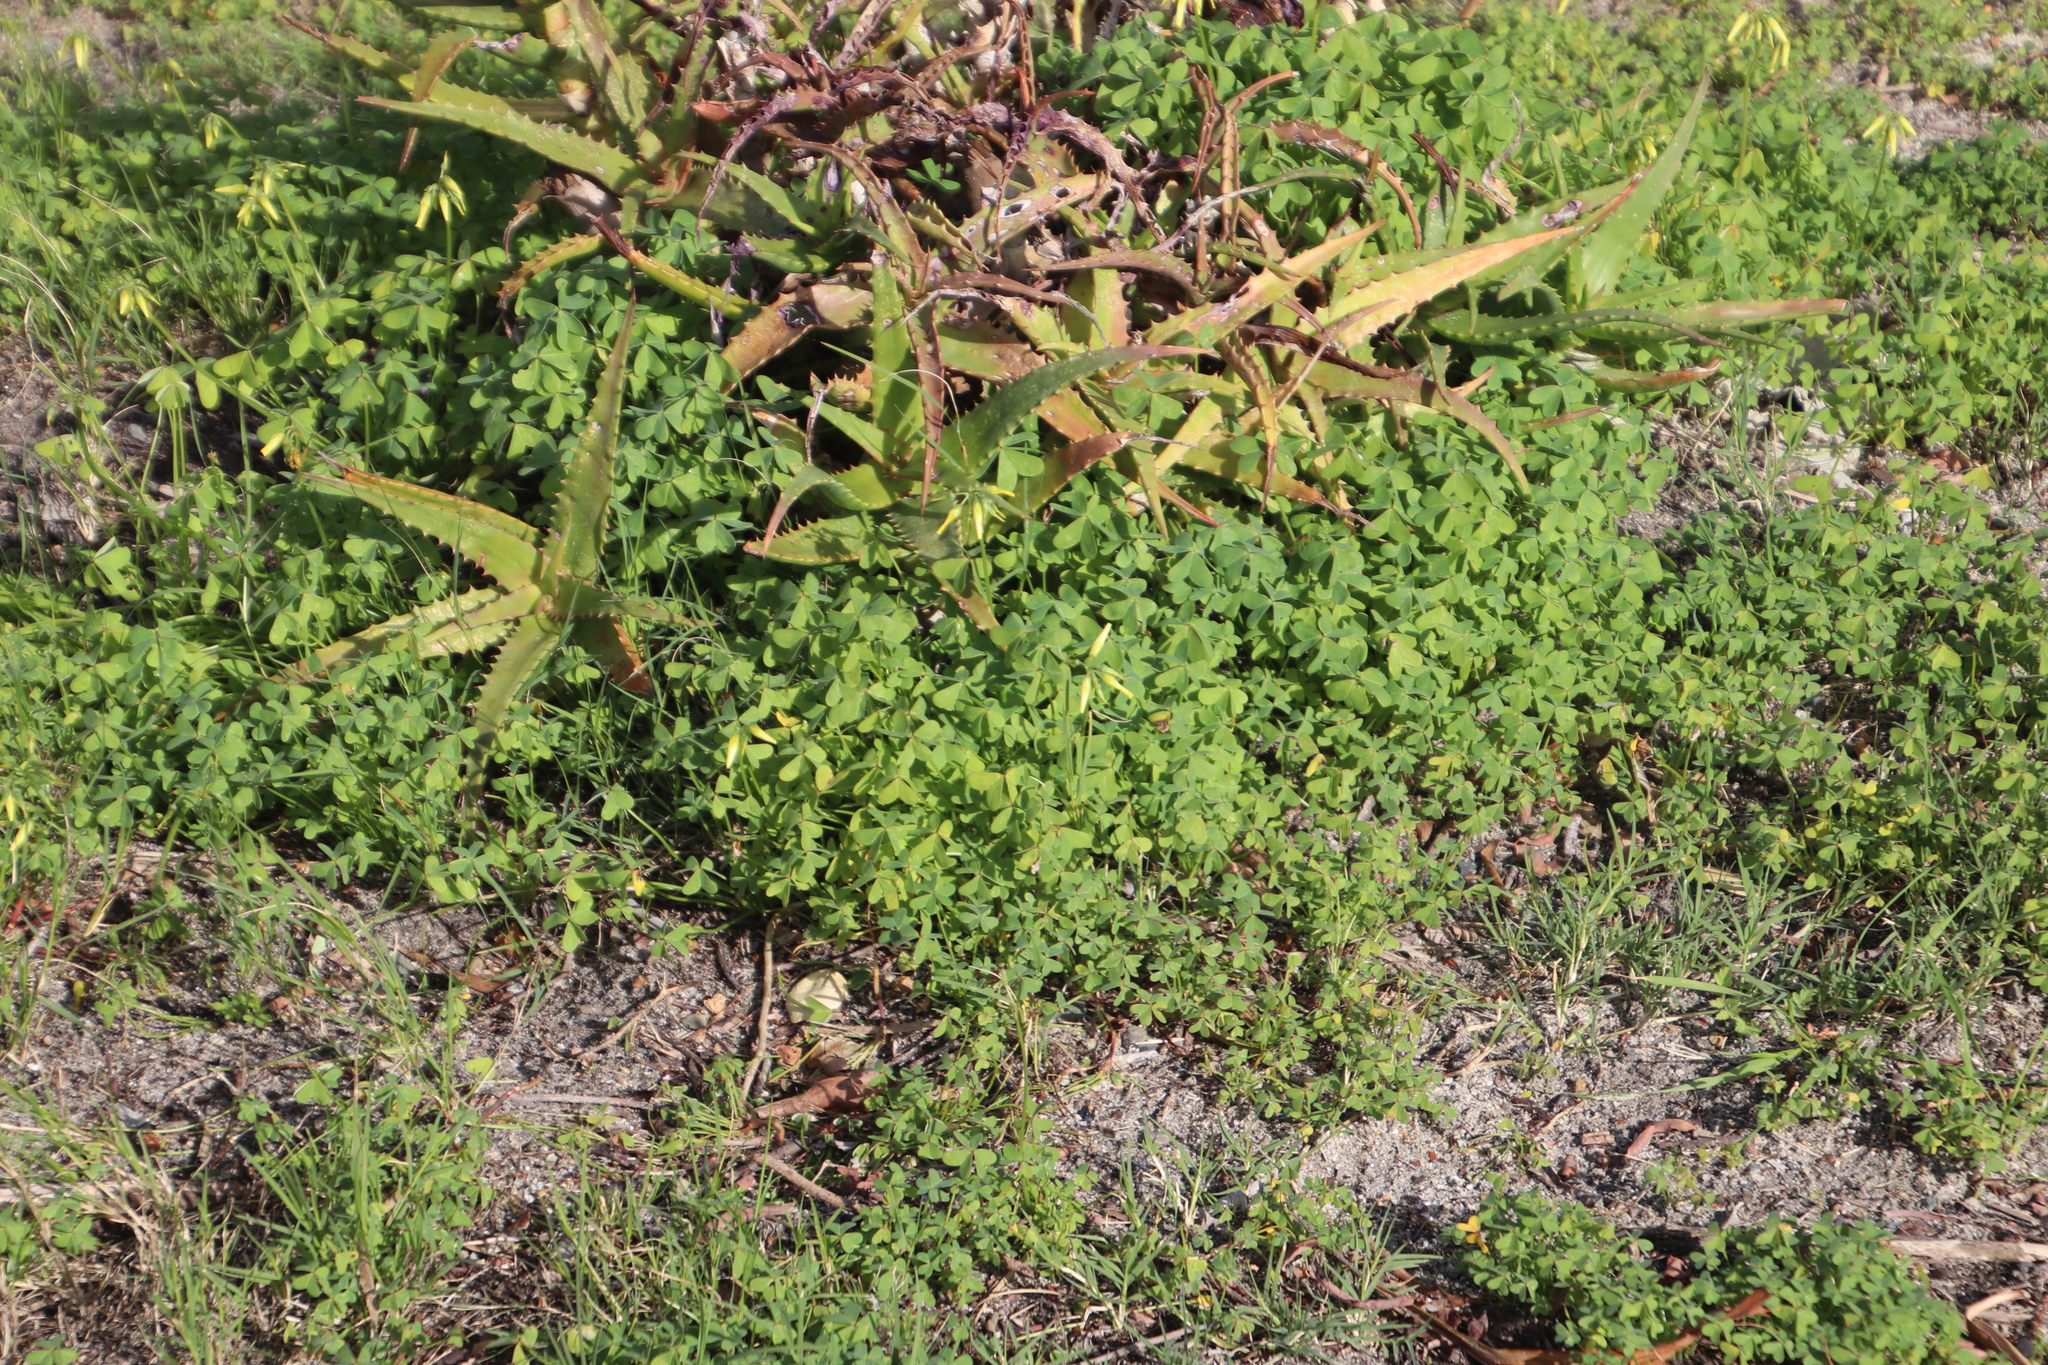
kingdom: Plantae
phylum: Tracheophyta
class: Magnoliopsida
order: Oxalidales
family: Oxalidaceae
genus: Oxalis
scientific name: Oxalis pes-caprae
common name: Bermuda-buttercup
